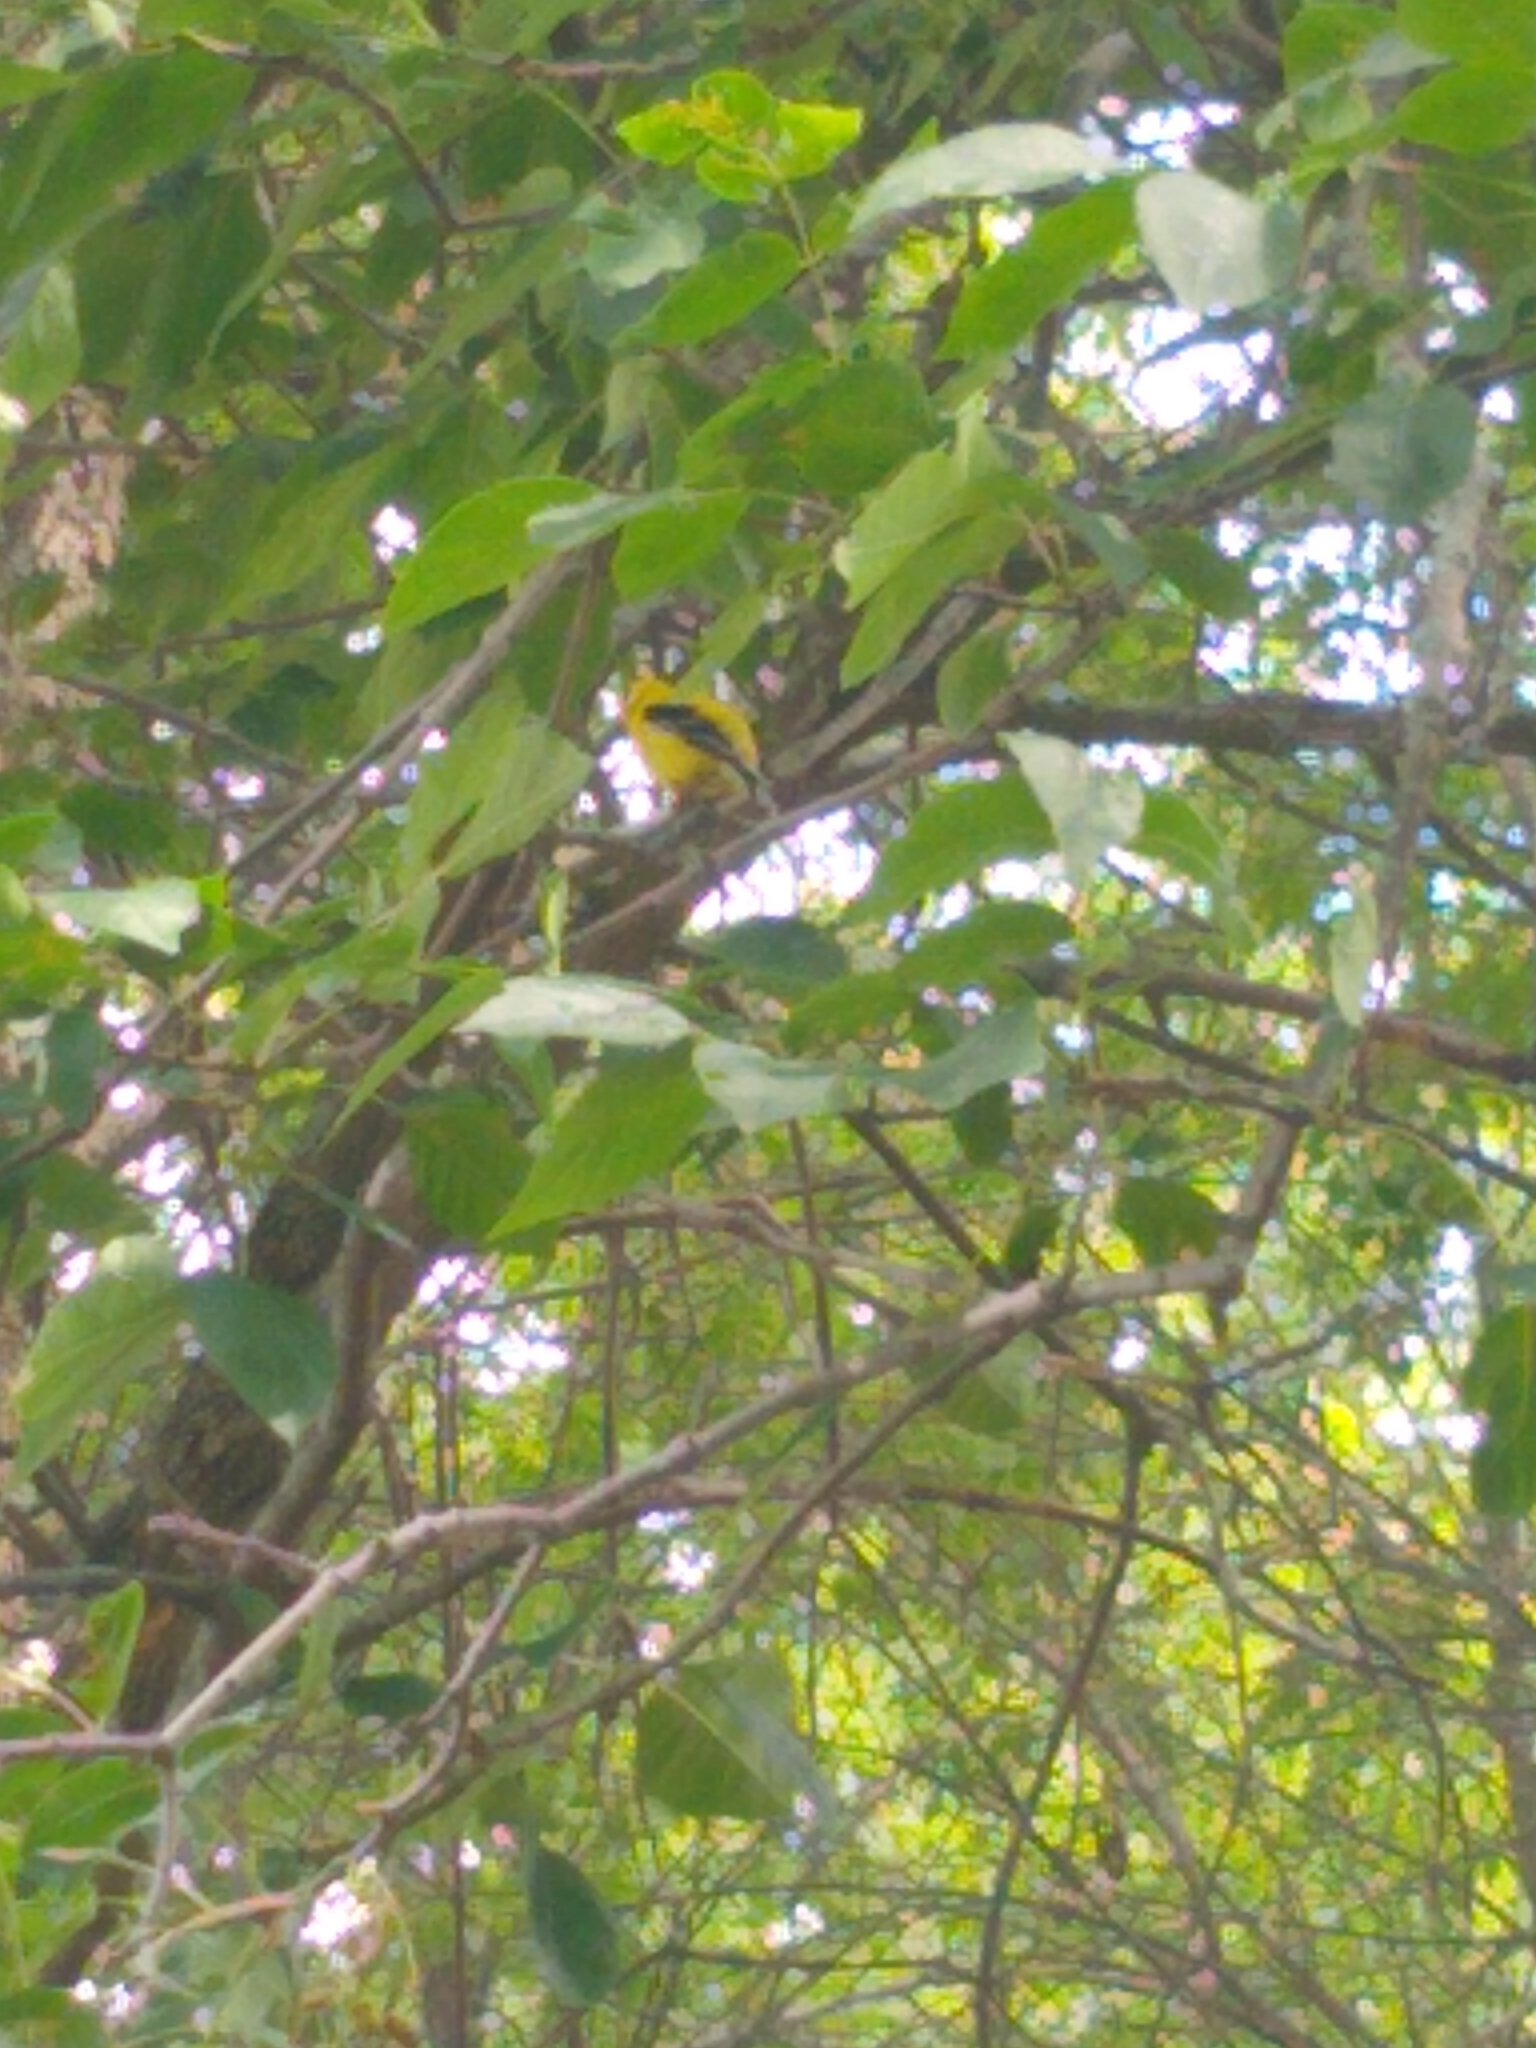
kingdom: Animalia
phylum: Chordata
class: Aves
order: Passeriformes
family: Fringillidae
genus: Spinus
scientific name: Spinus tristis
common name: American goldfinch
